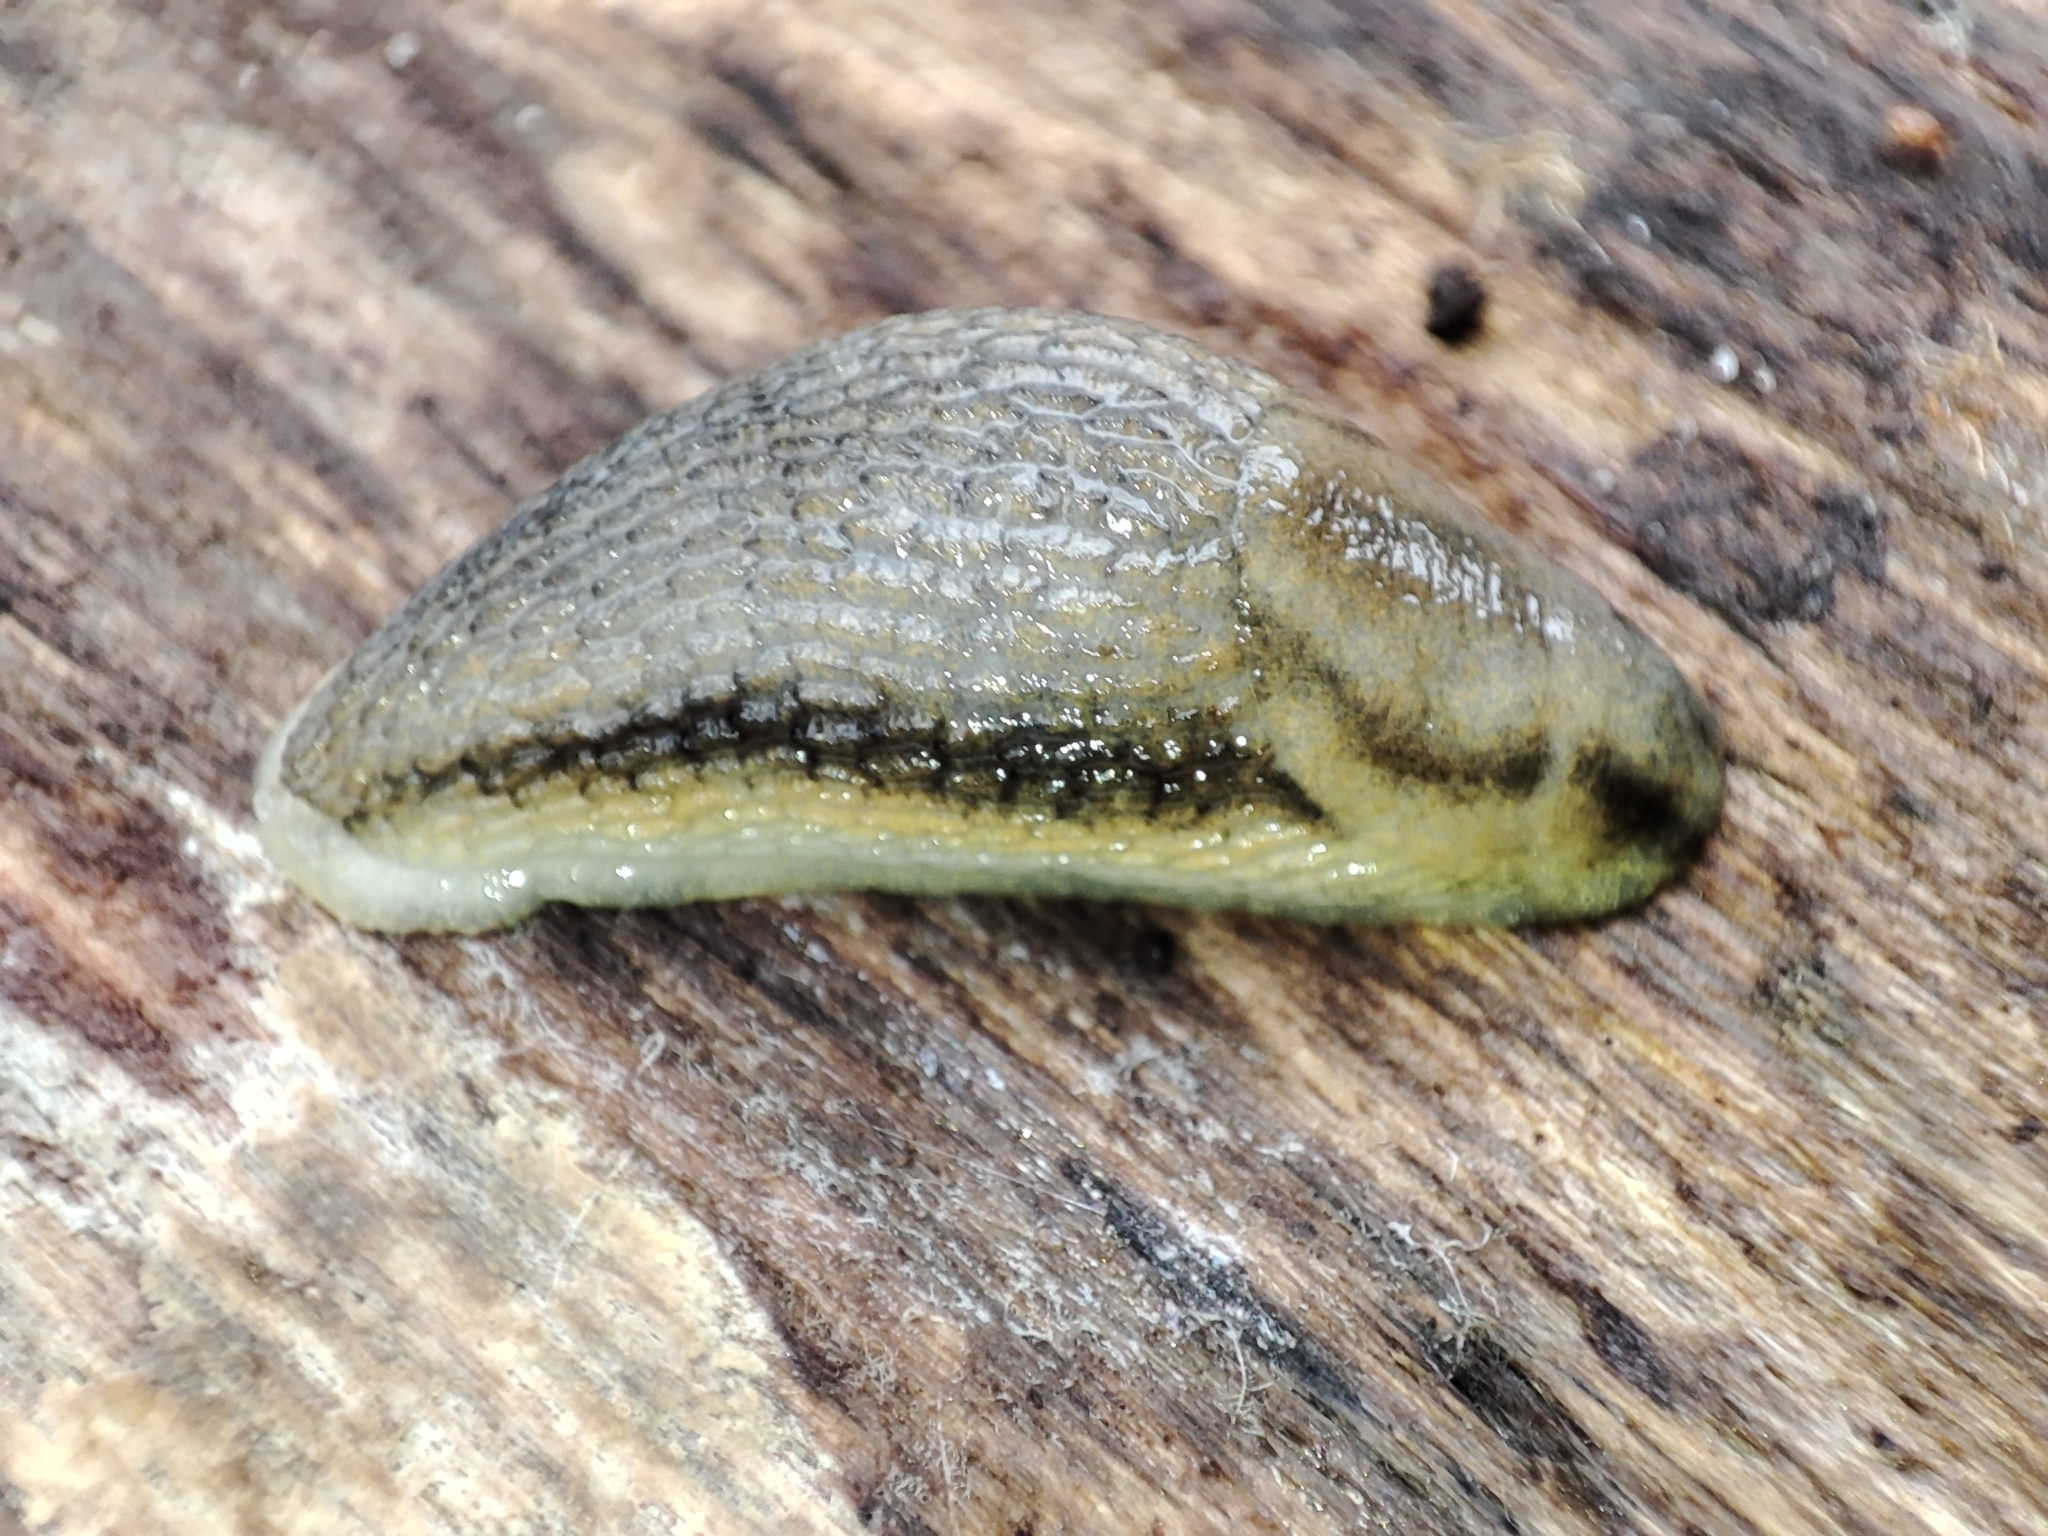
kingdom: Animalia
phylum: Mollusca
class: Gastropoda
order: Stylommatophora
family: Arionidae
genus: Arion
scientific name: Arion fasciatus
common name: Orange-banded arion
